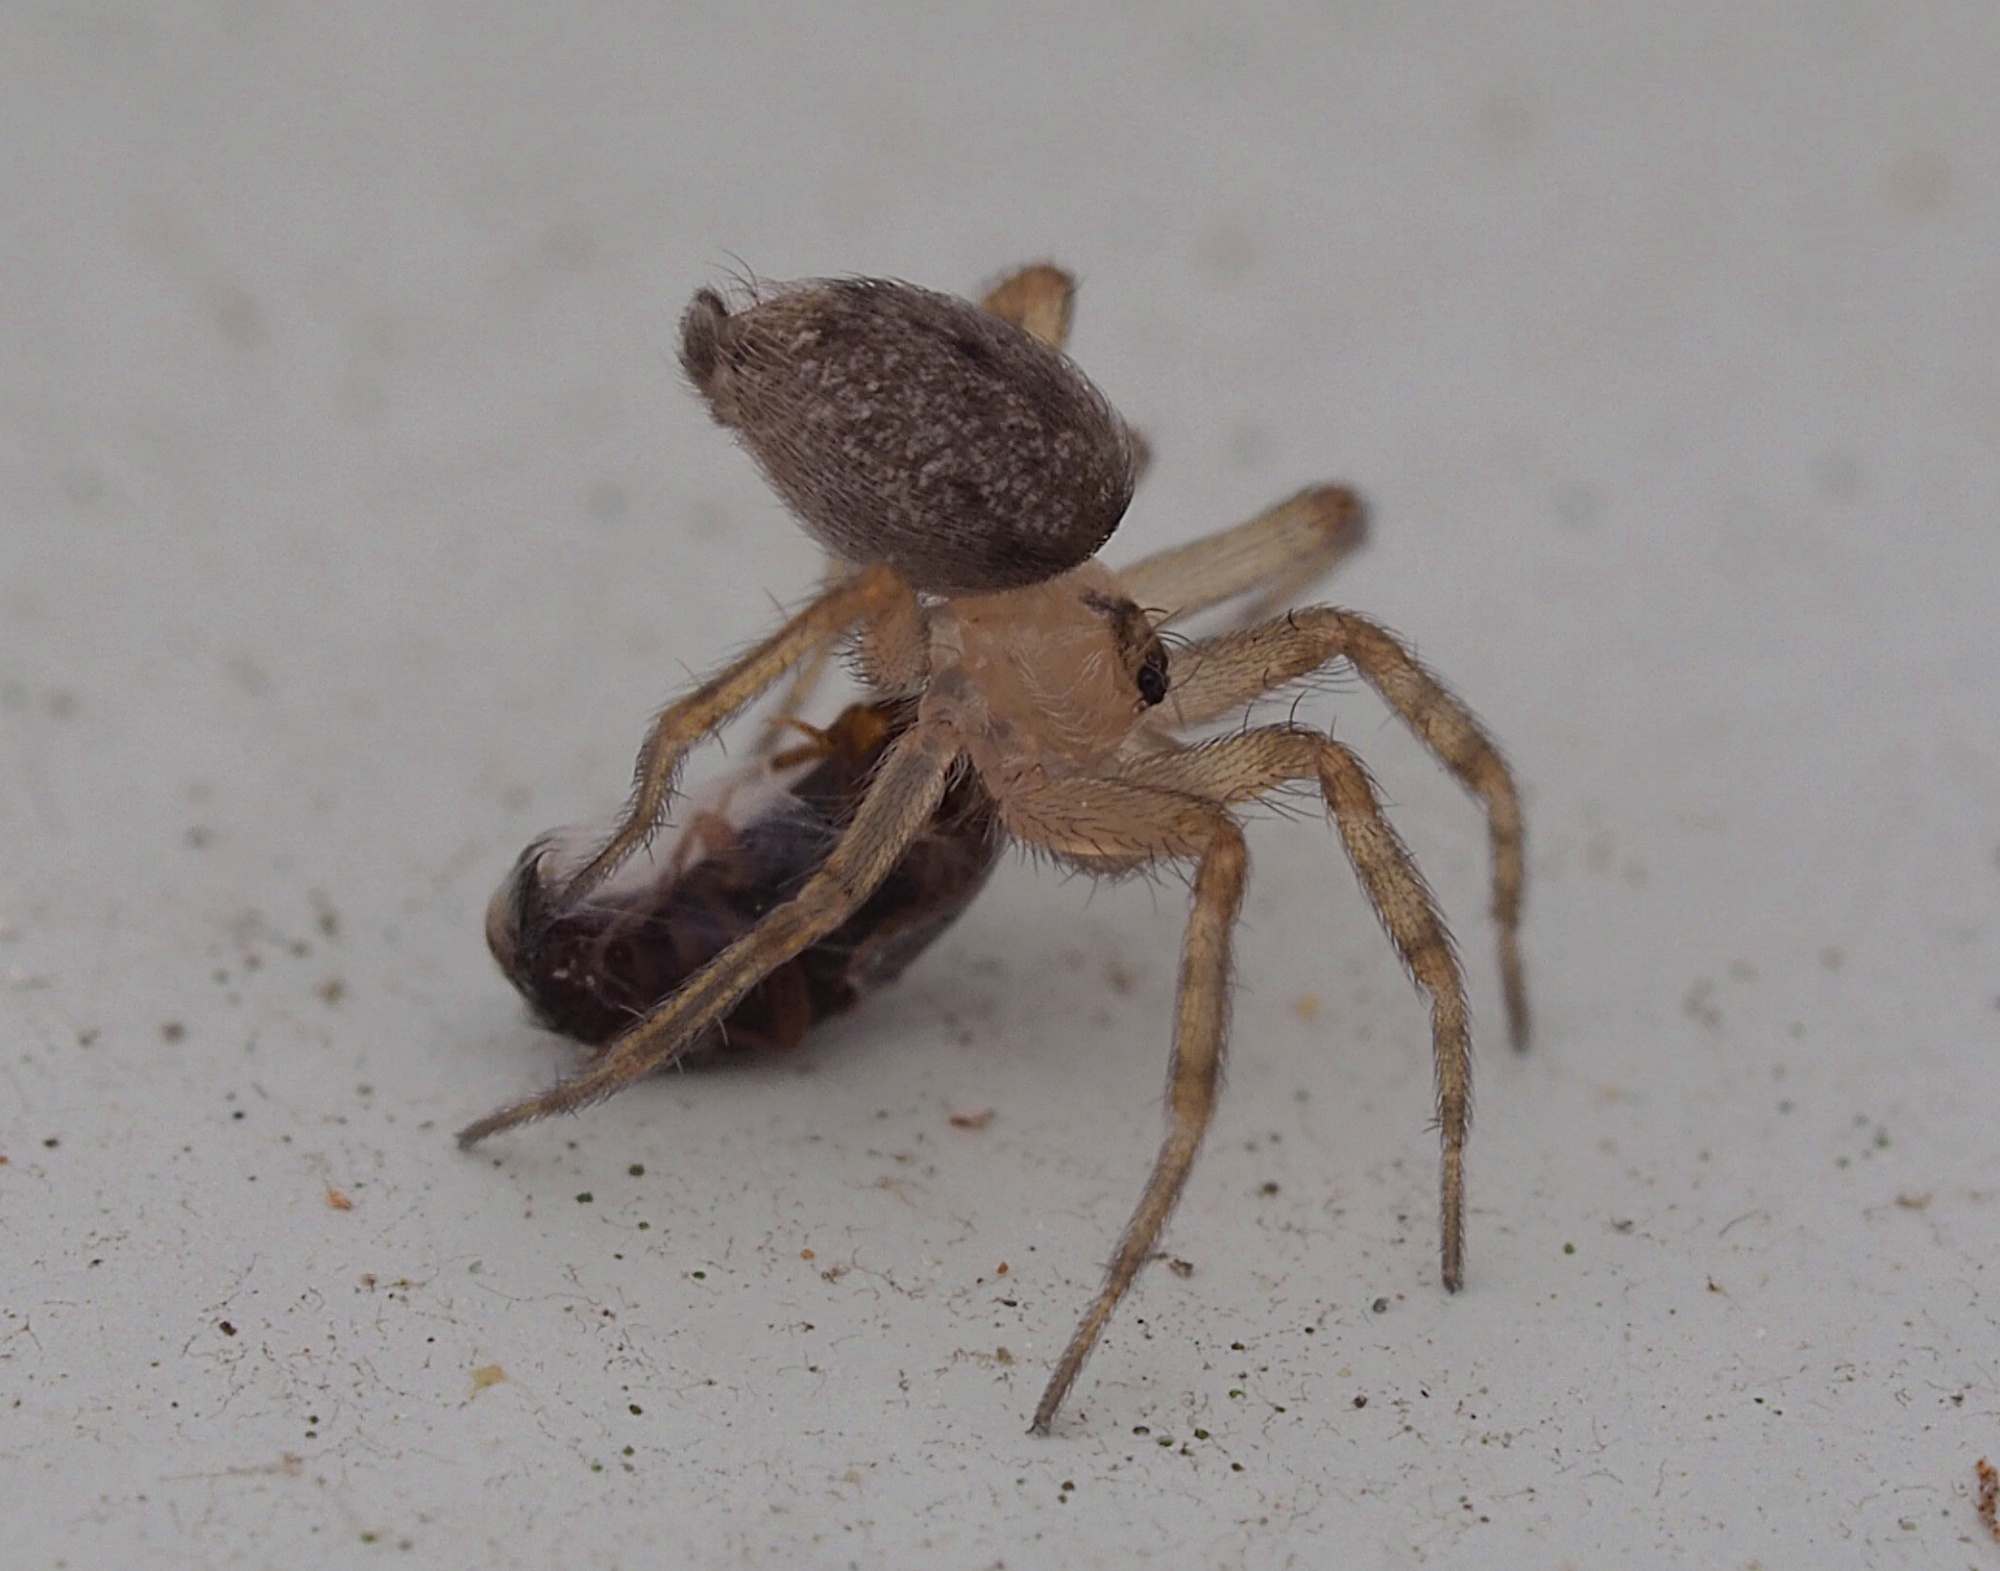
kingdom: Animalia
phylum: Arthropoda
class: Arachnida
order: Araneae
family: Oecobiidae
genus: Oecobius
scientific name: Oecobius navus
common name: Flatmesh weaver
